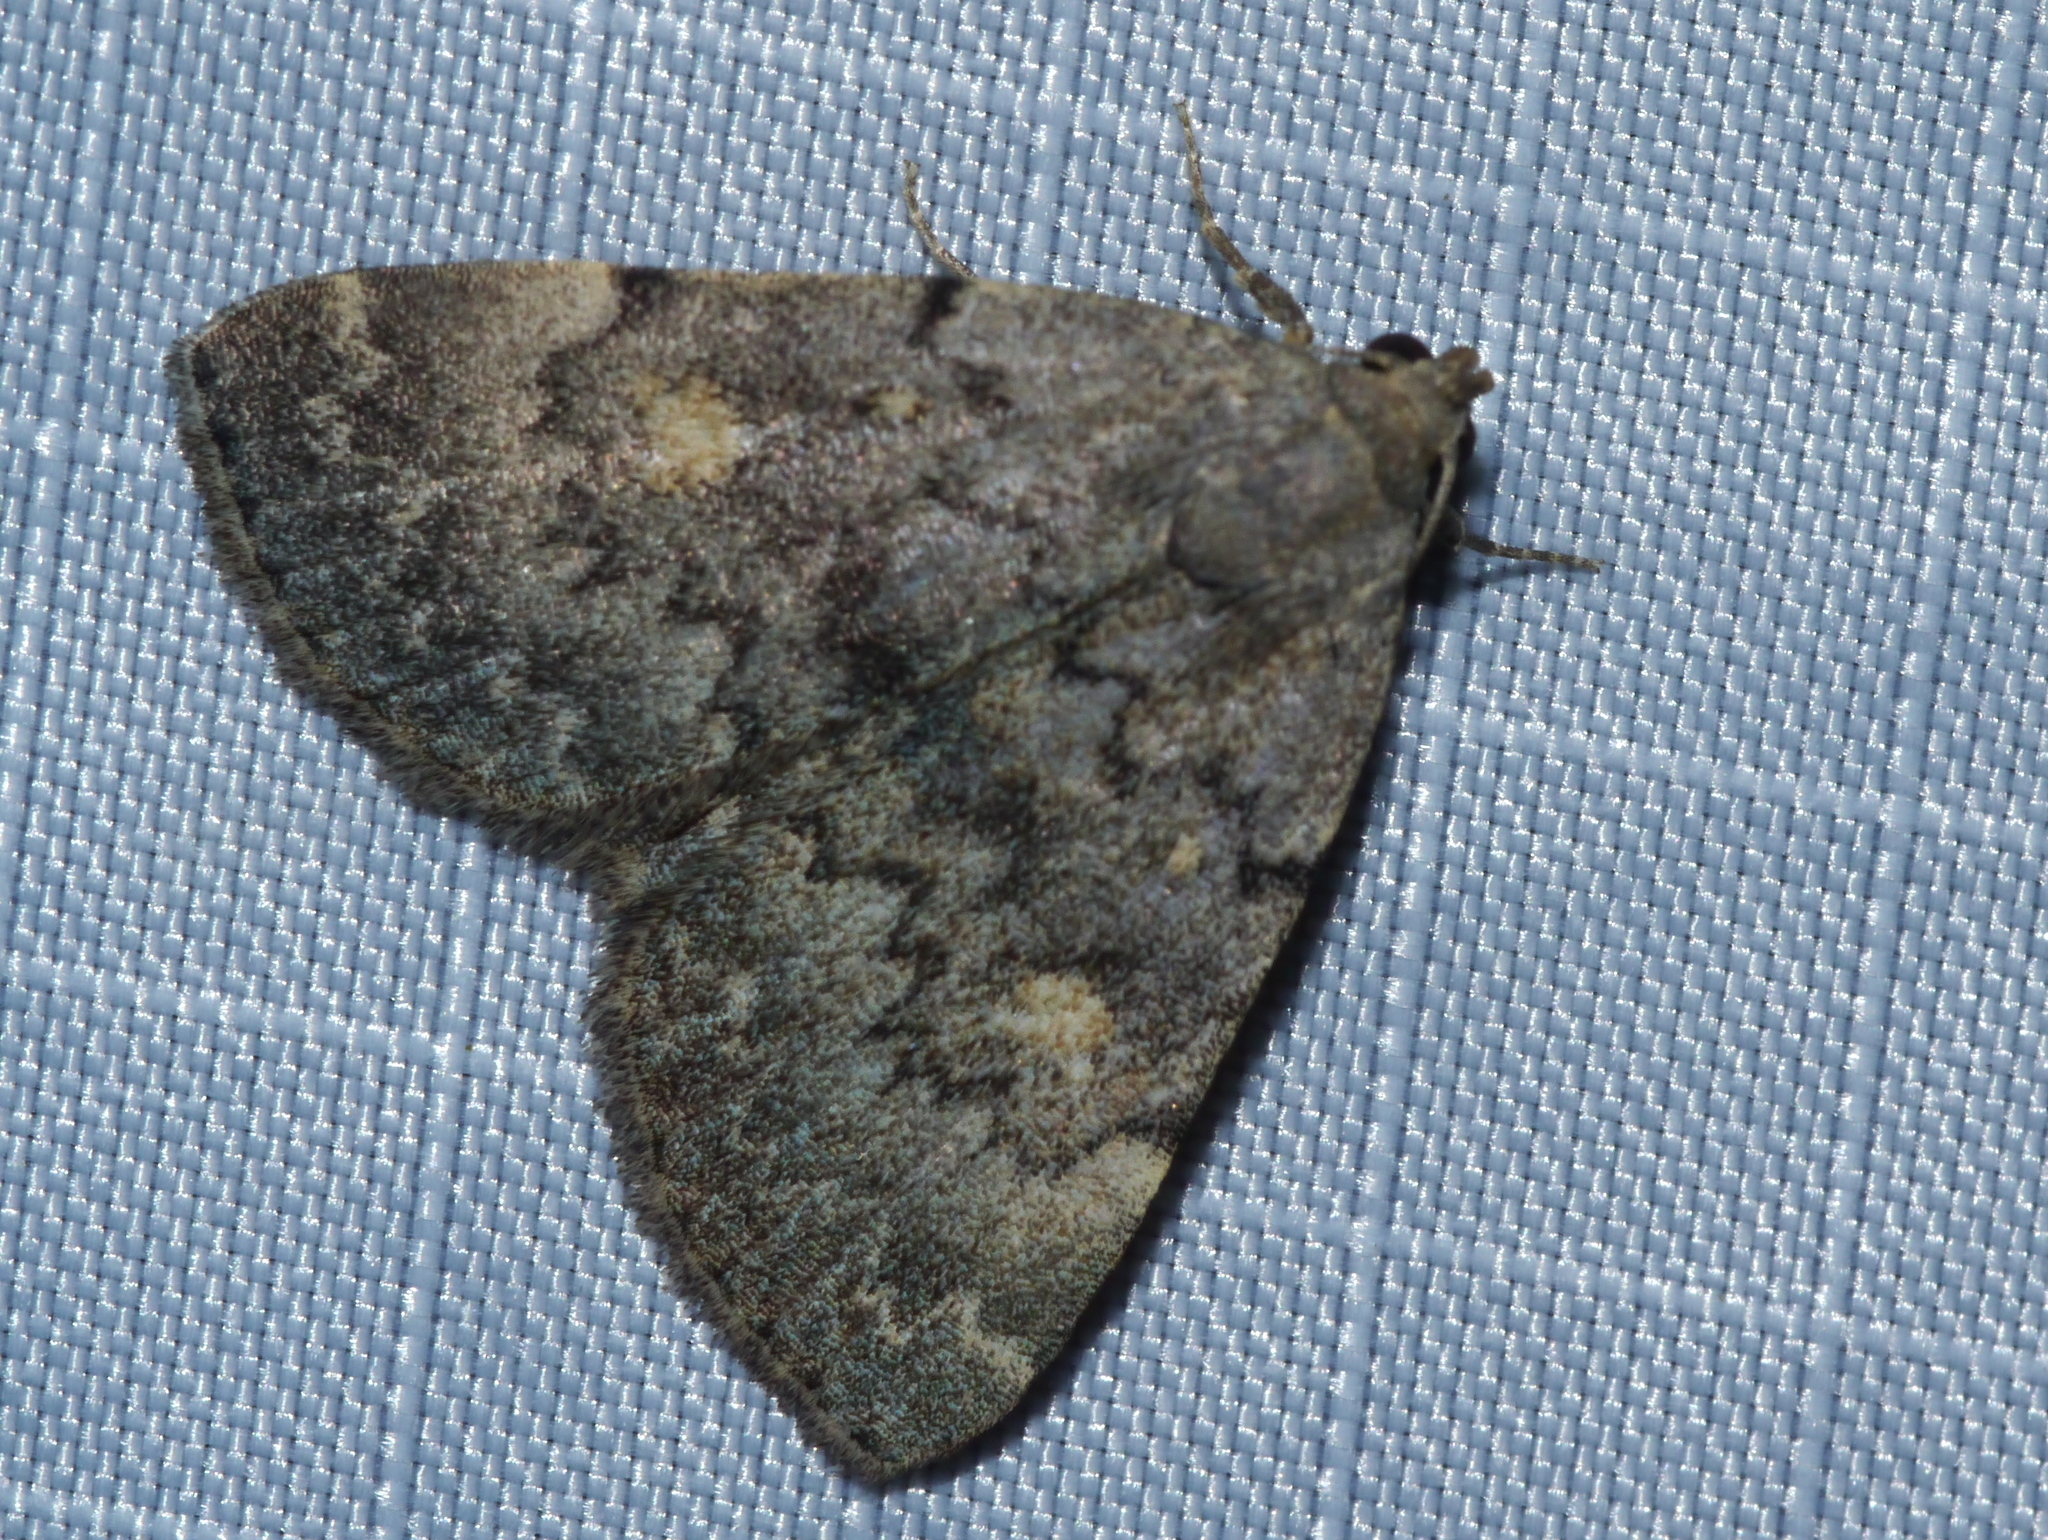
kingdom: Animalia
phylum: Arthropoda
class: Insecta
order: Lepidoptera
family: Erebidae
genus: Idia
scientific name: Idia aemula
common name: Common idia moth
